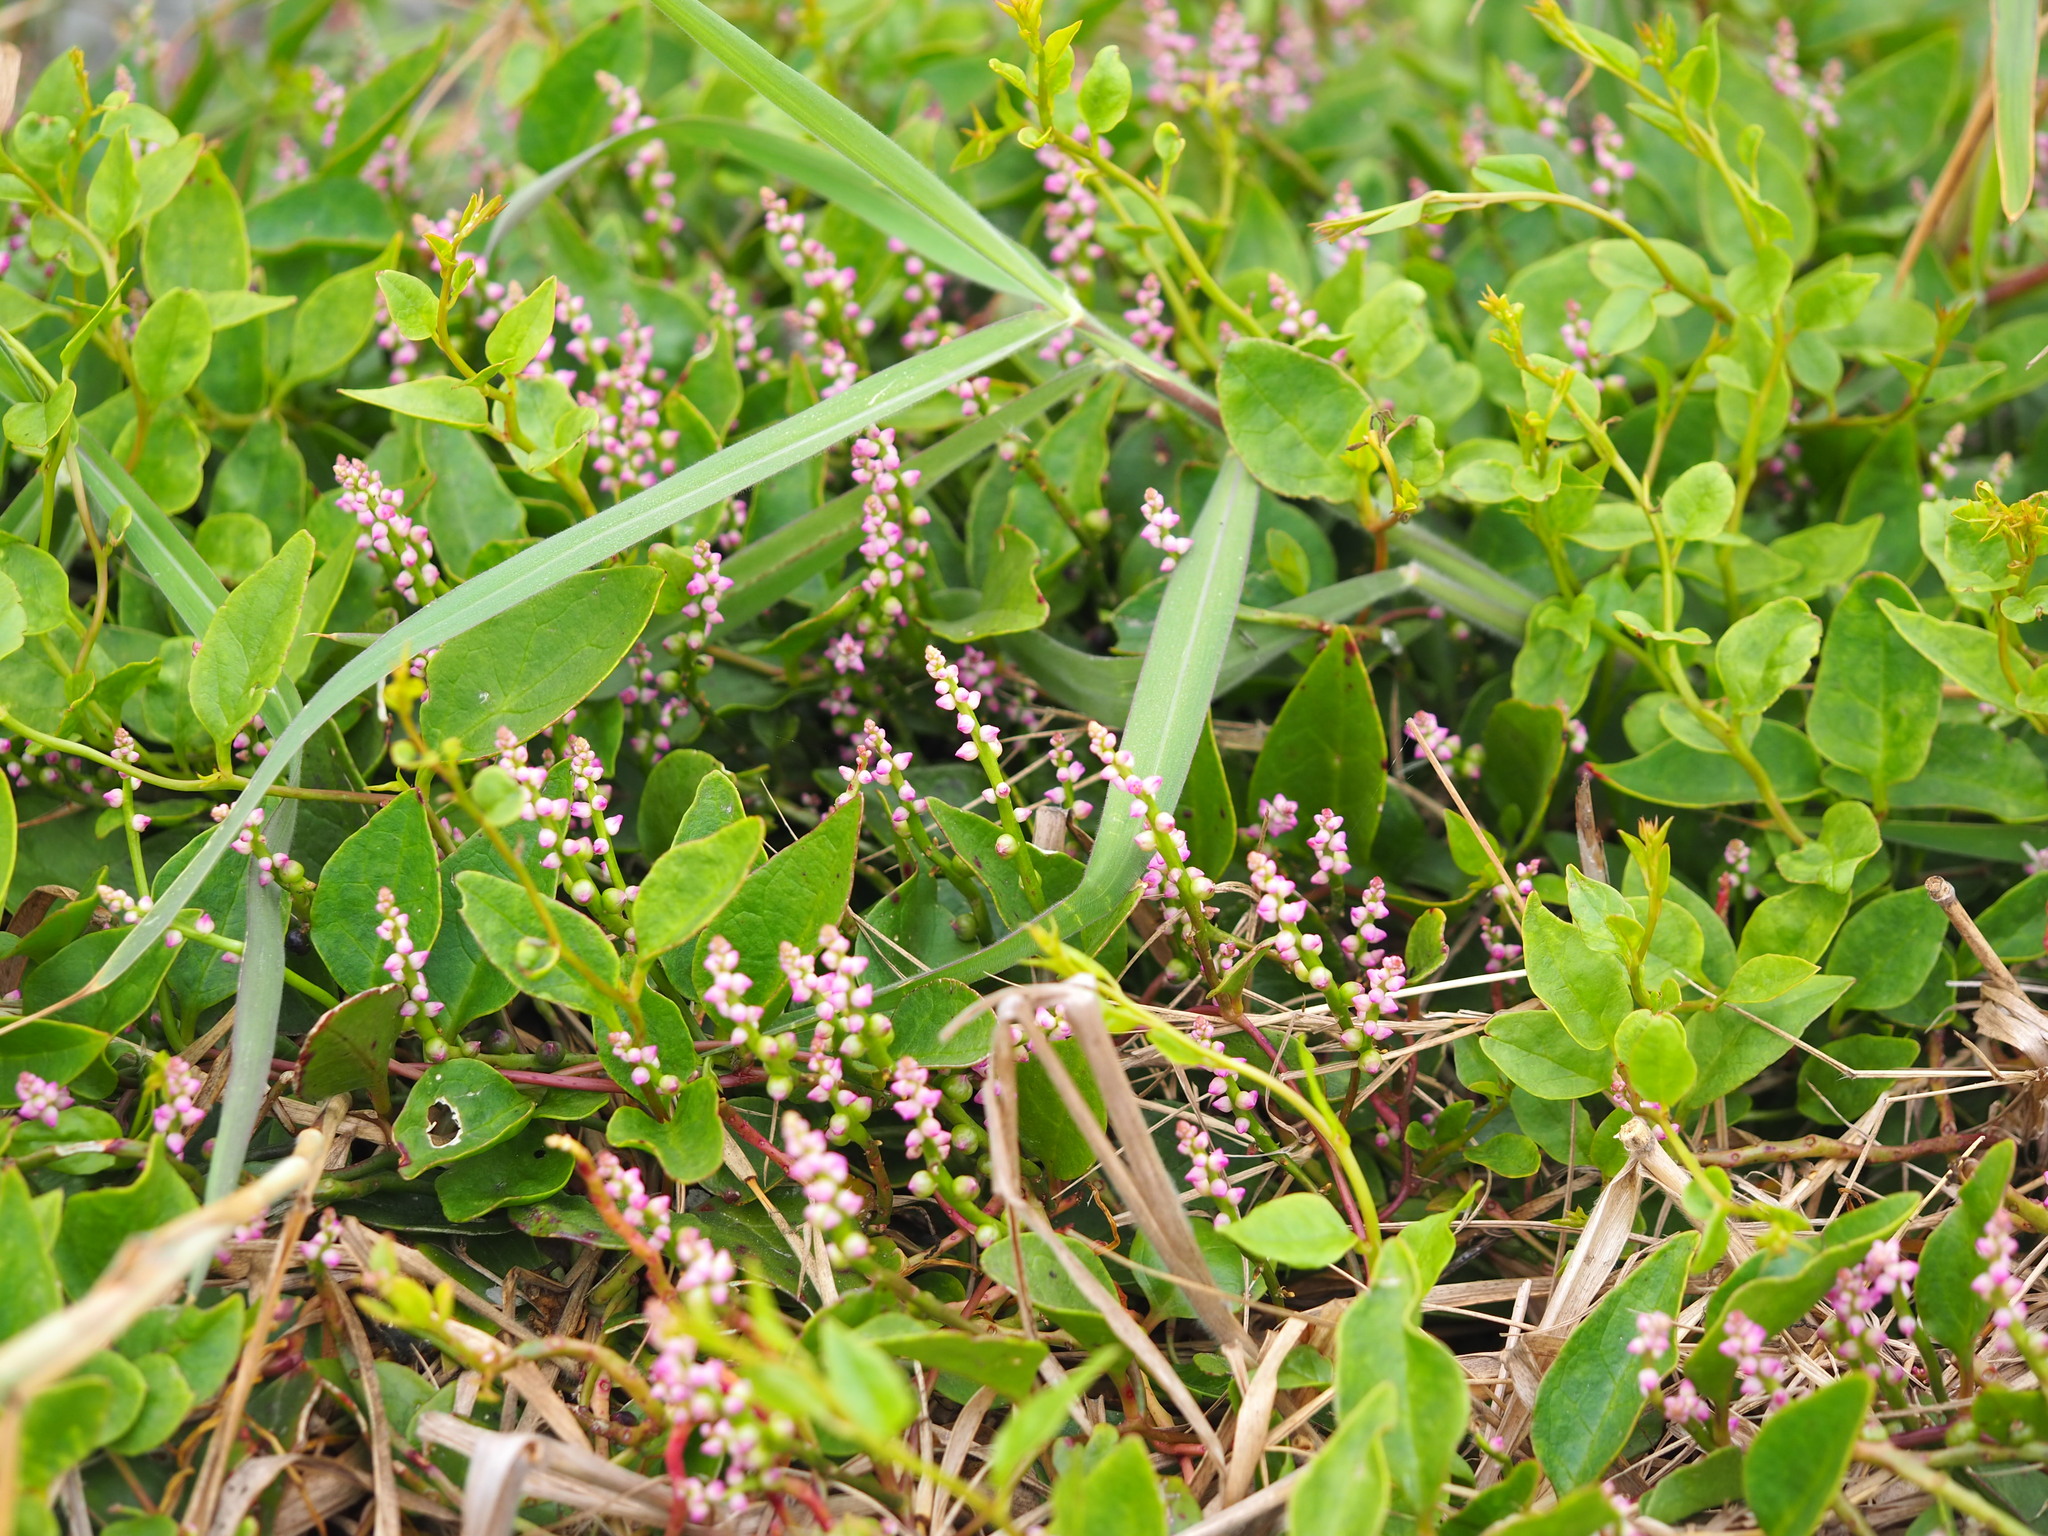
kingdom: Plantae
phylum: Tracheophyta
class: Magnoliopsida
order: Caryophyllales
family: Basellaceae
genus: Basella
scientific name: Basella alba
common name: Indian spinach
